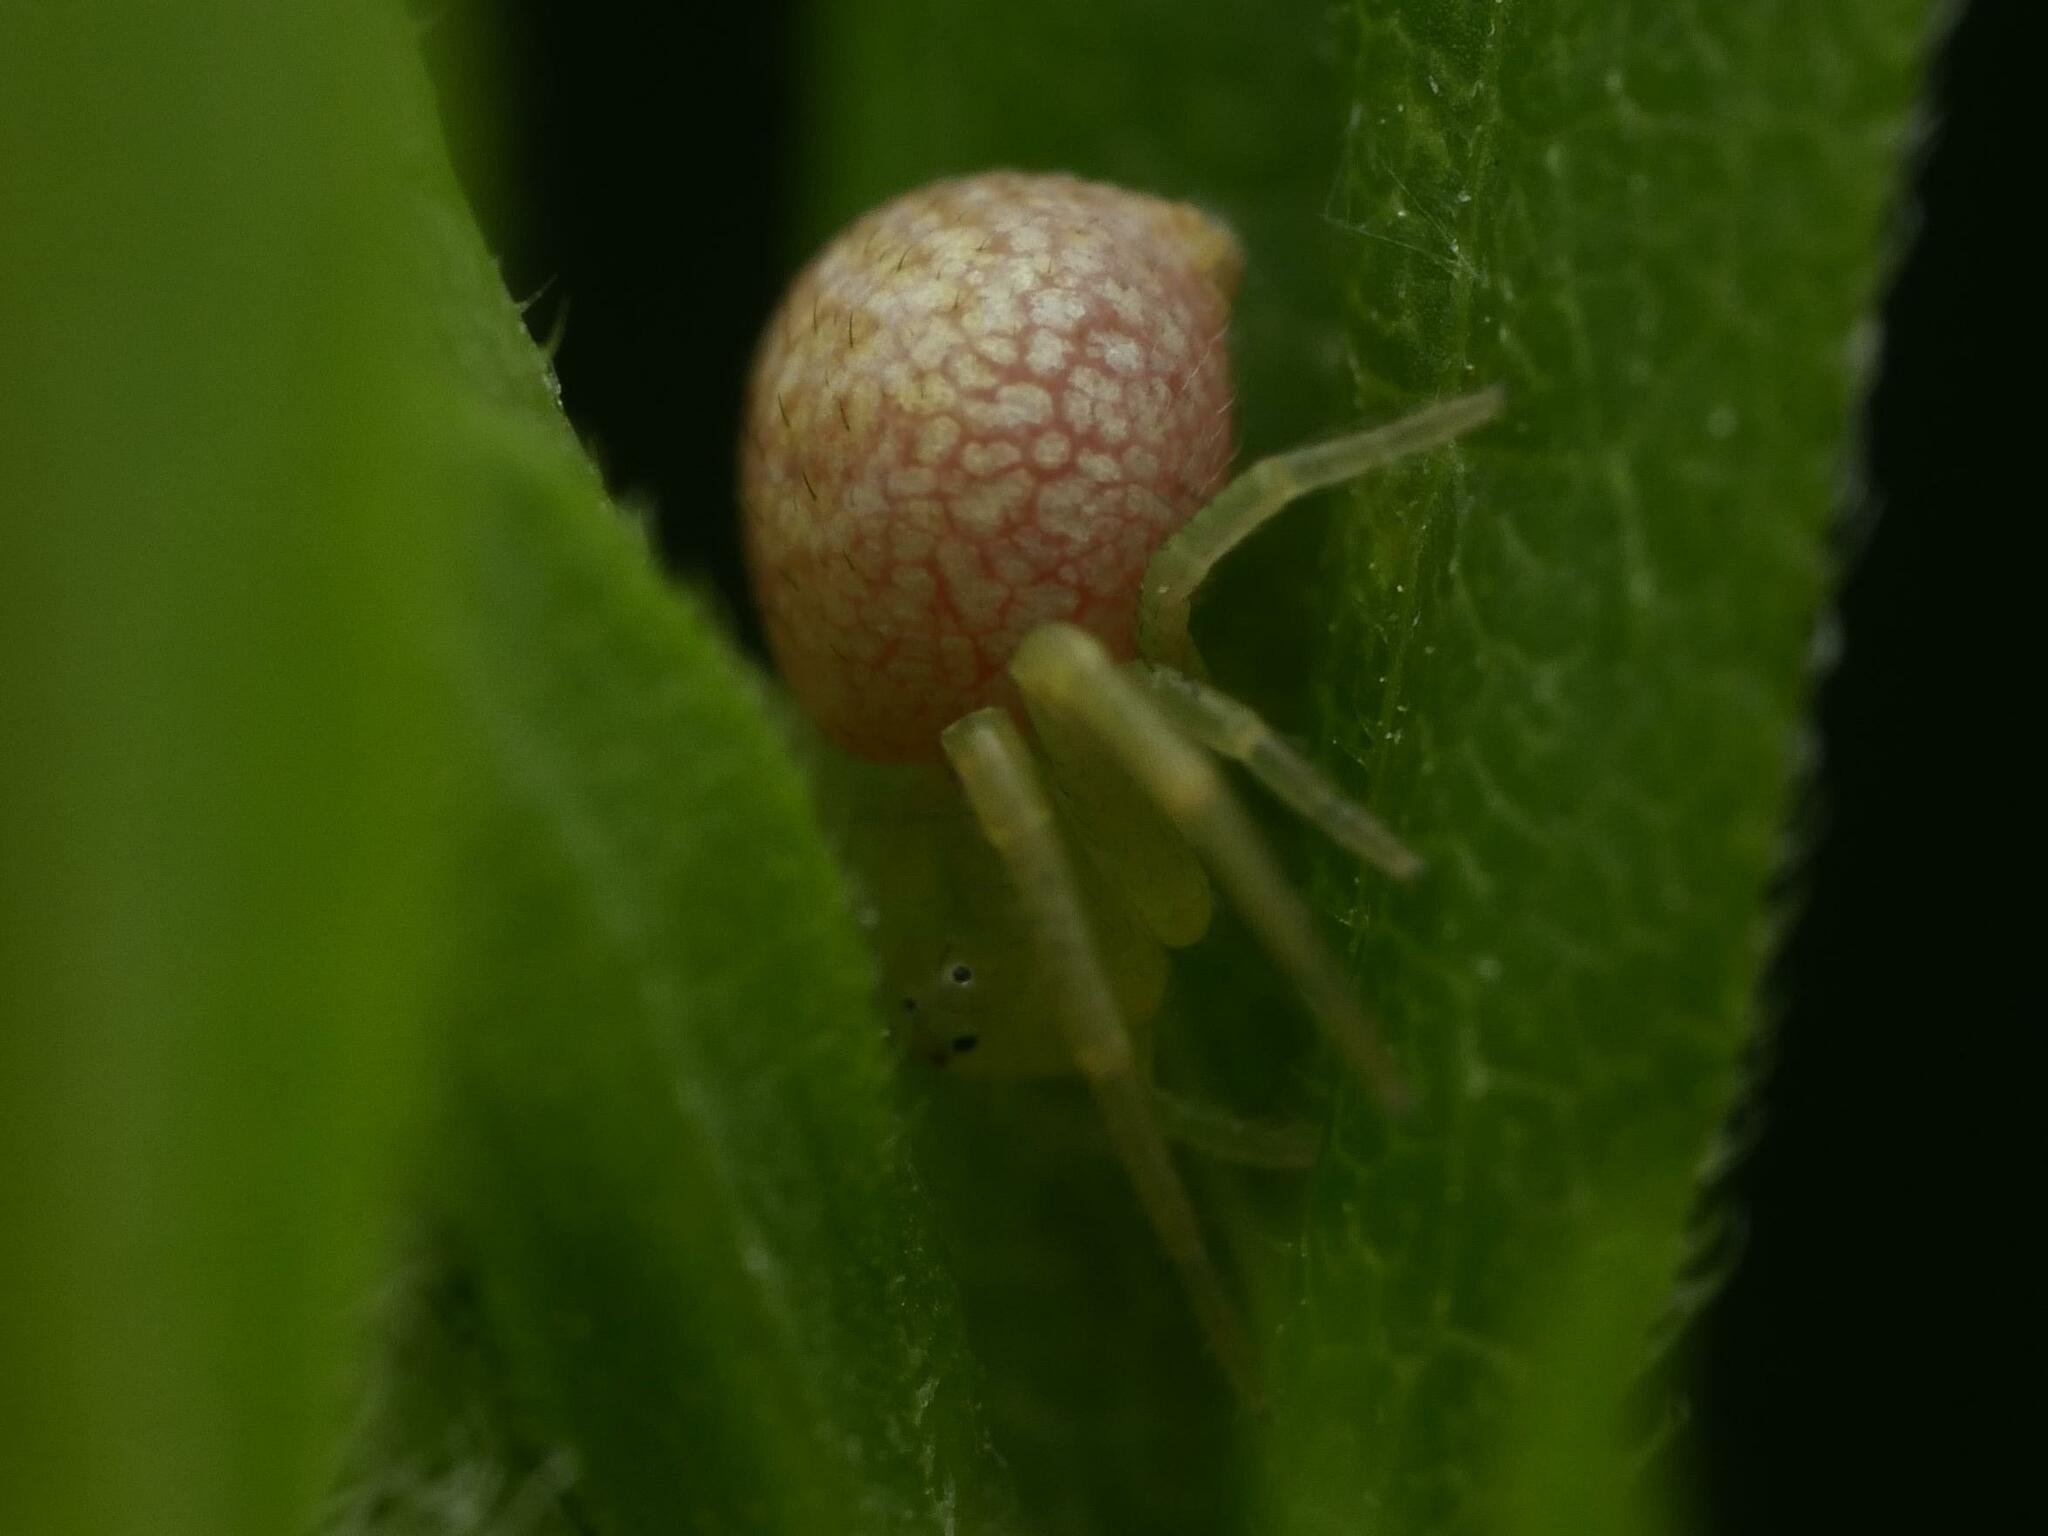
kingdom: Animalia
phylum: Arthropoda
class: Arachnida
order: Araneae
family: Thomisidae
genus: Ebrechtella
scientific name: Ebrechtella tricuspidata
